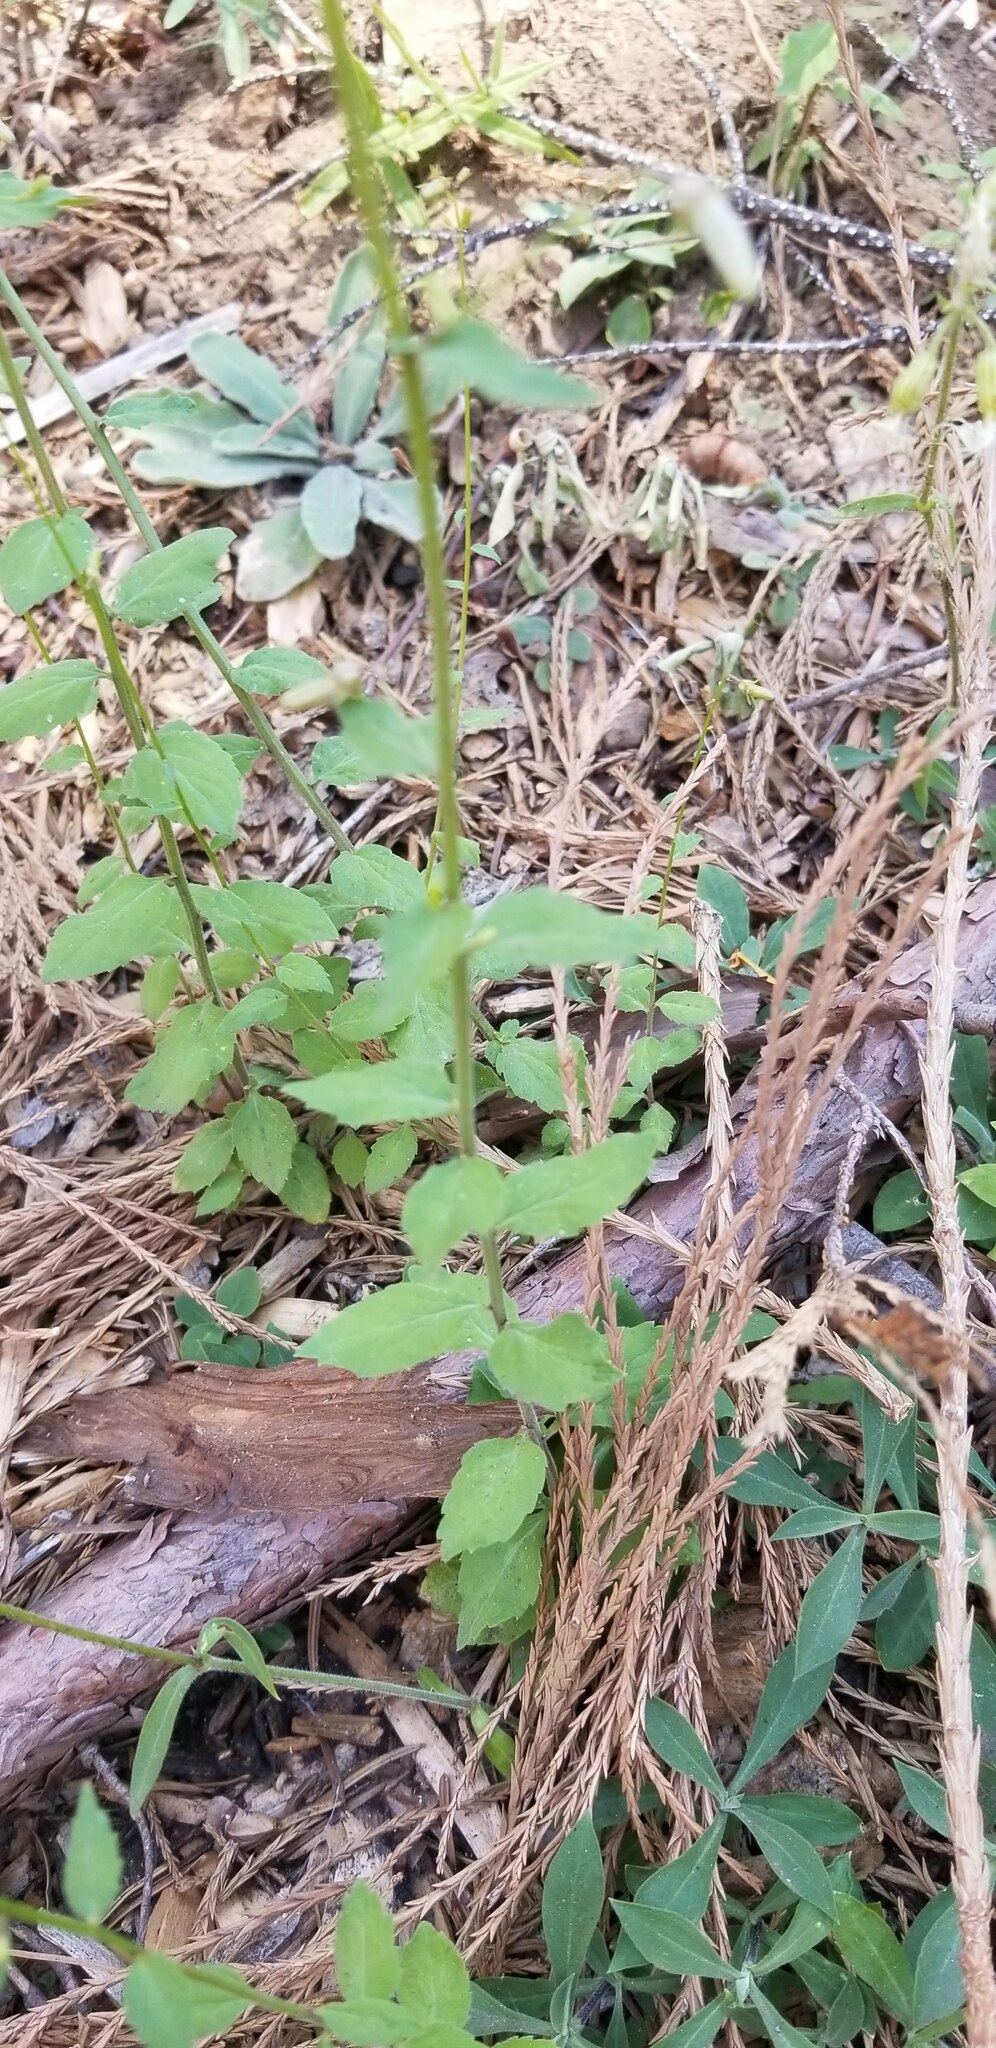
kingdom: Plantae
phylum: Tracheophyta
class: Magnoliopsida
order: Asterales
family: Campanulaceae
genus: Smithiastrum
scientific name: Smithiastrum prenanthoides
